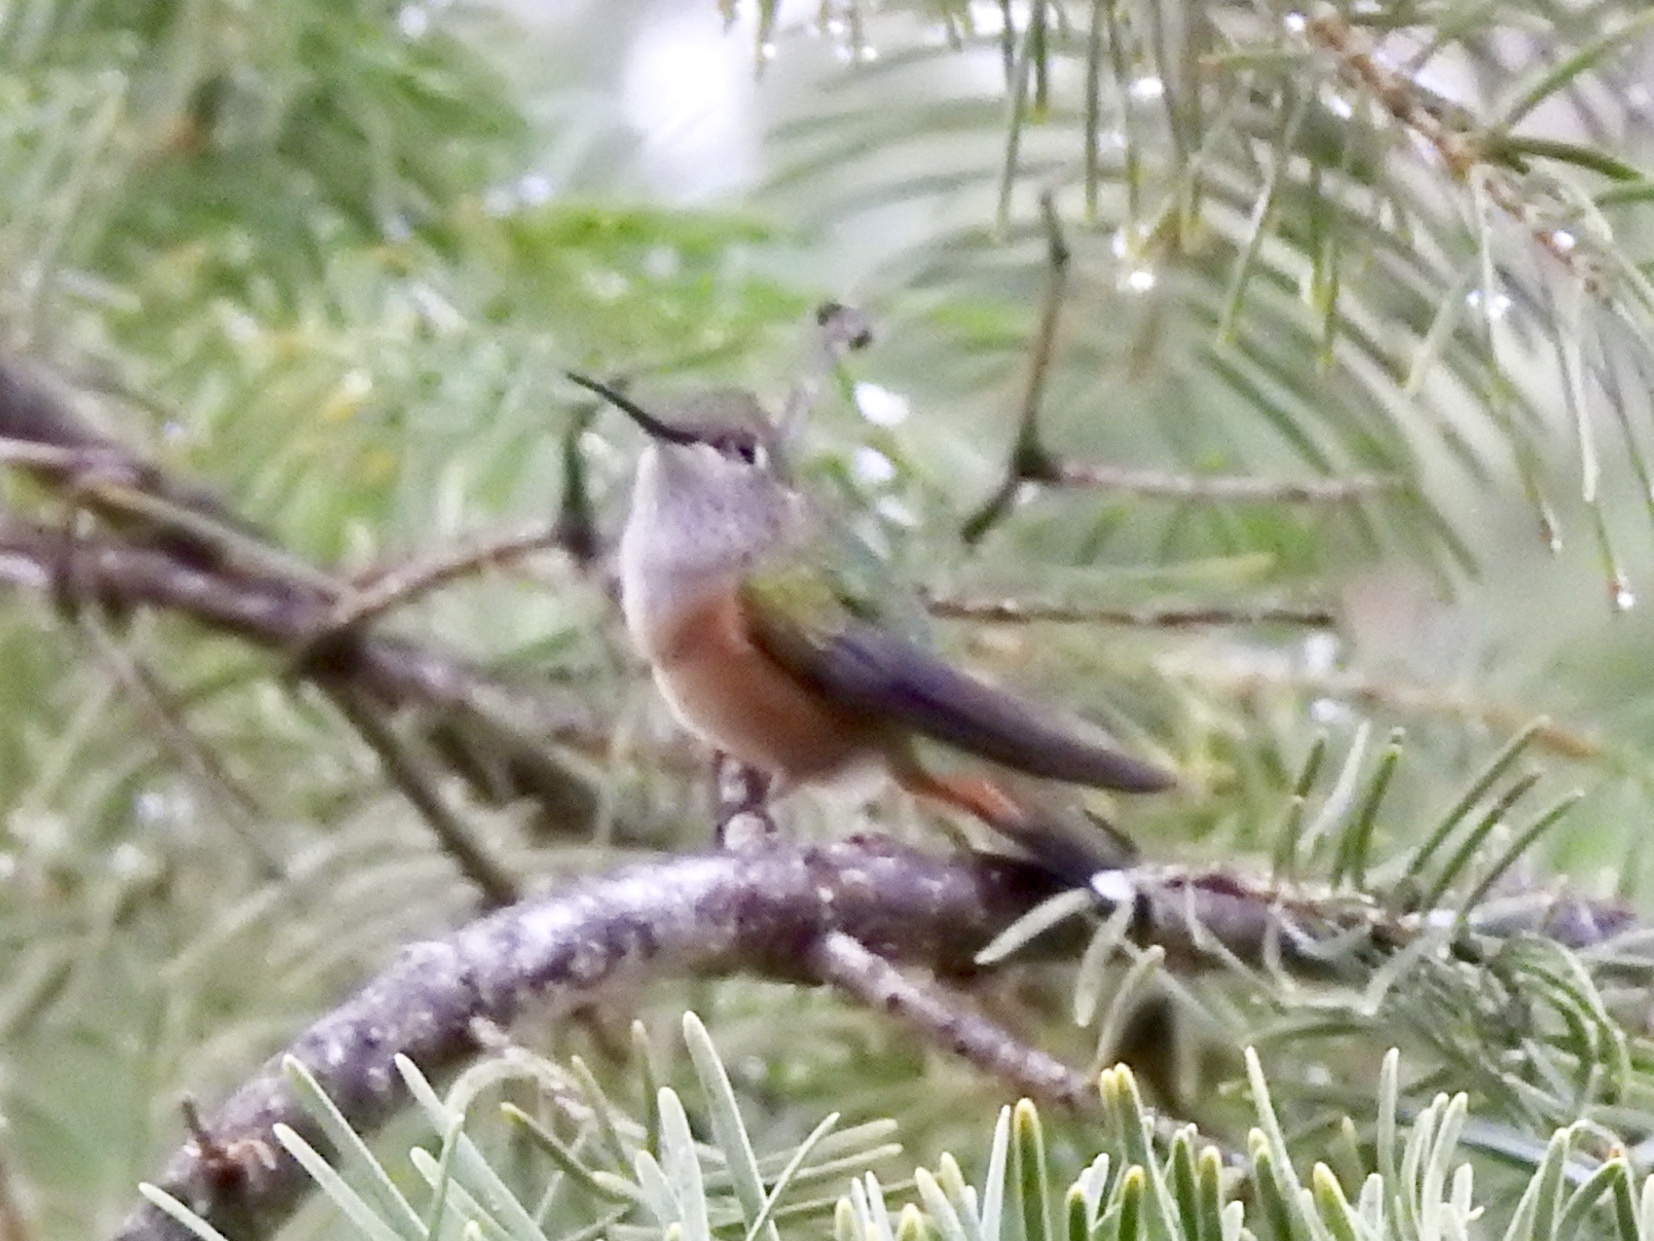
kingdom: Animalia
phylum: Chordata
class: Aves
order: Apodiformes
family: Trochilidae
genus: Selasphorus
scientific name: Selasphorus platycercus
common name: Broad-tailed hummingbird
